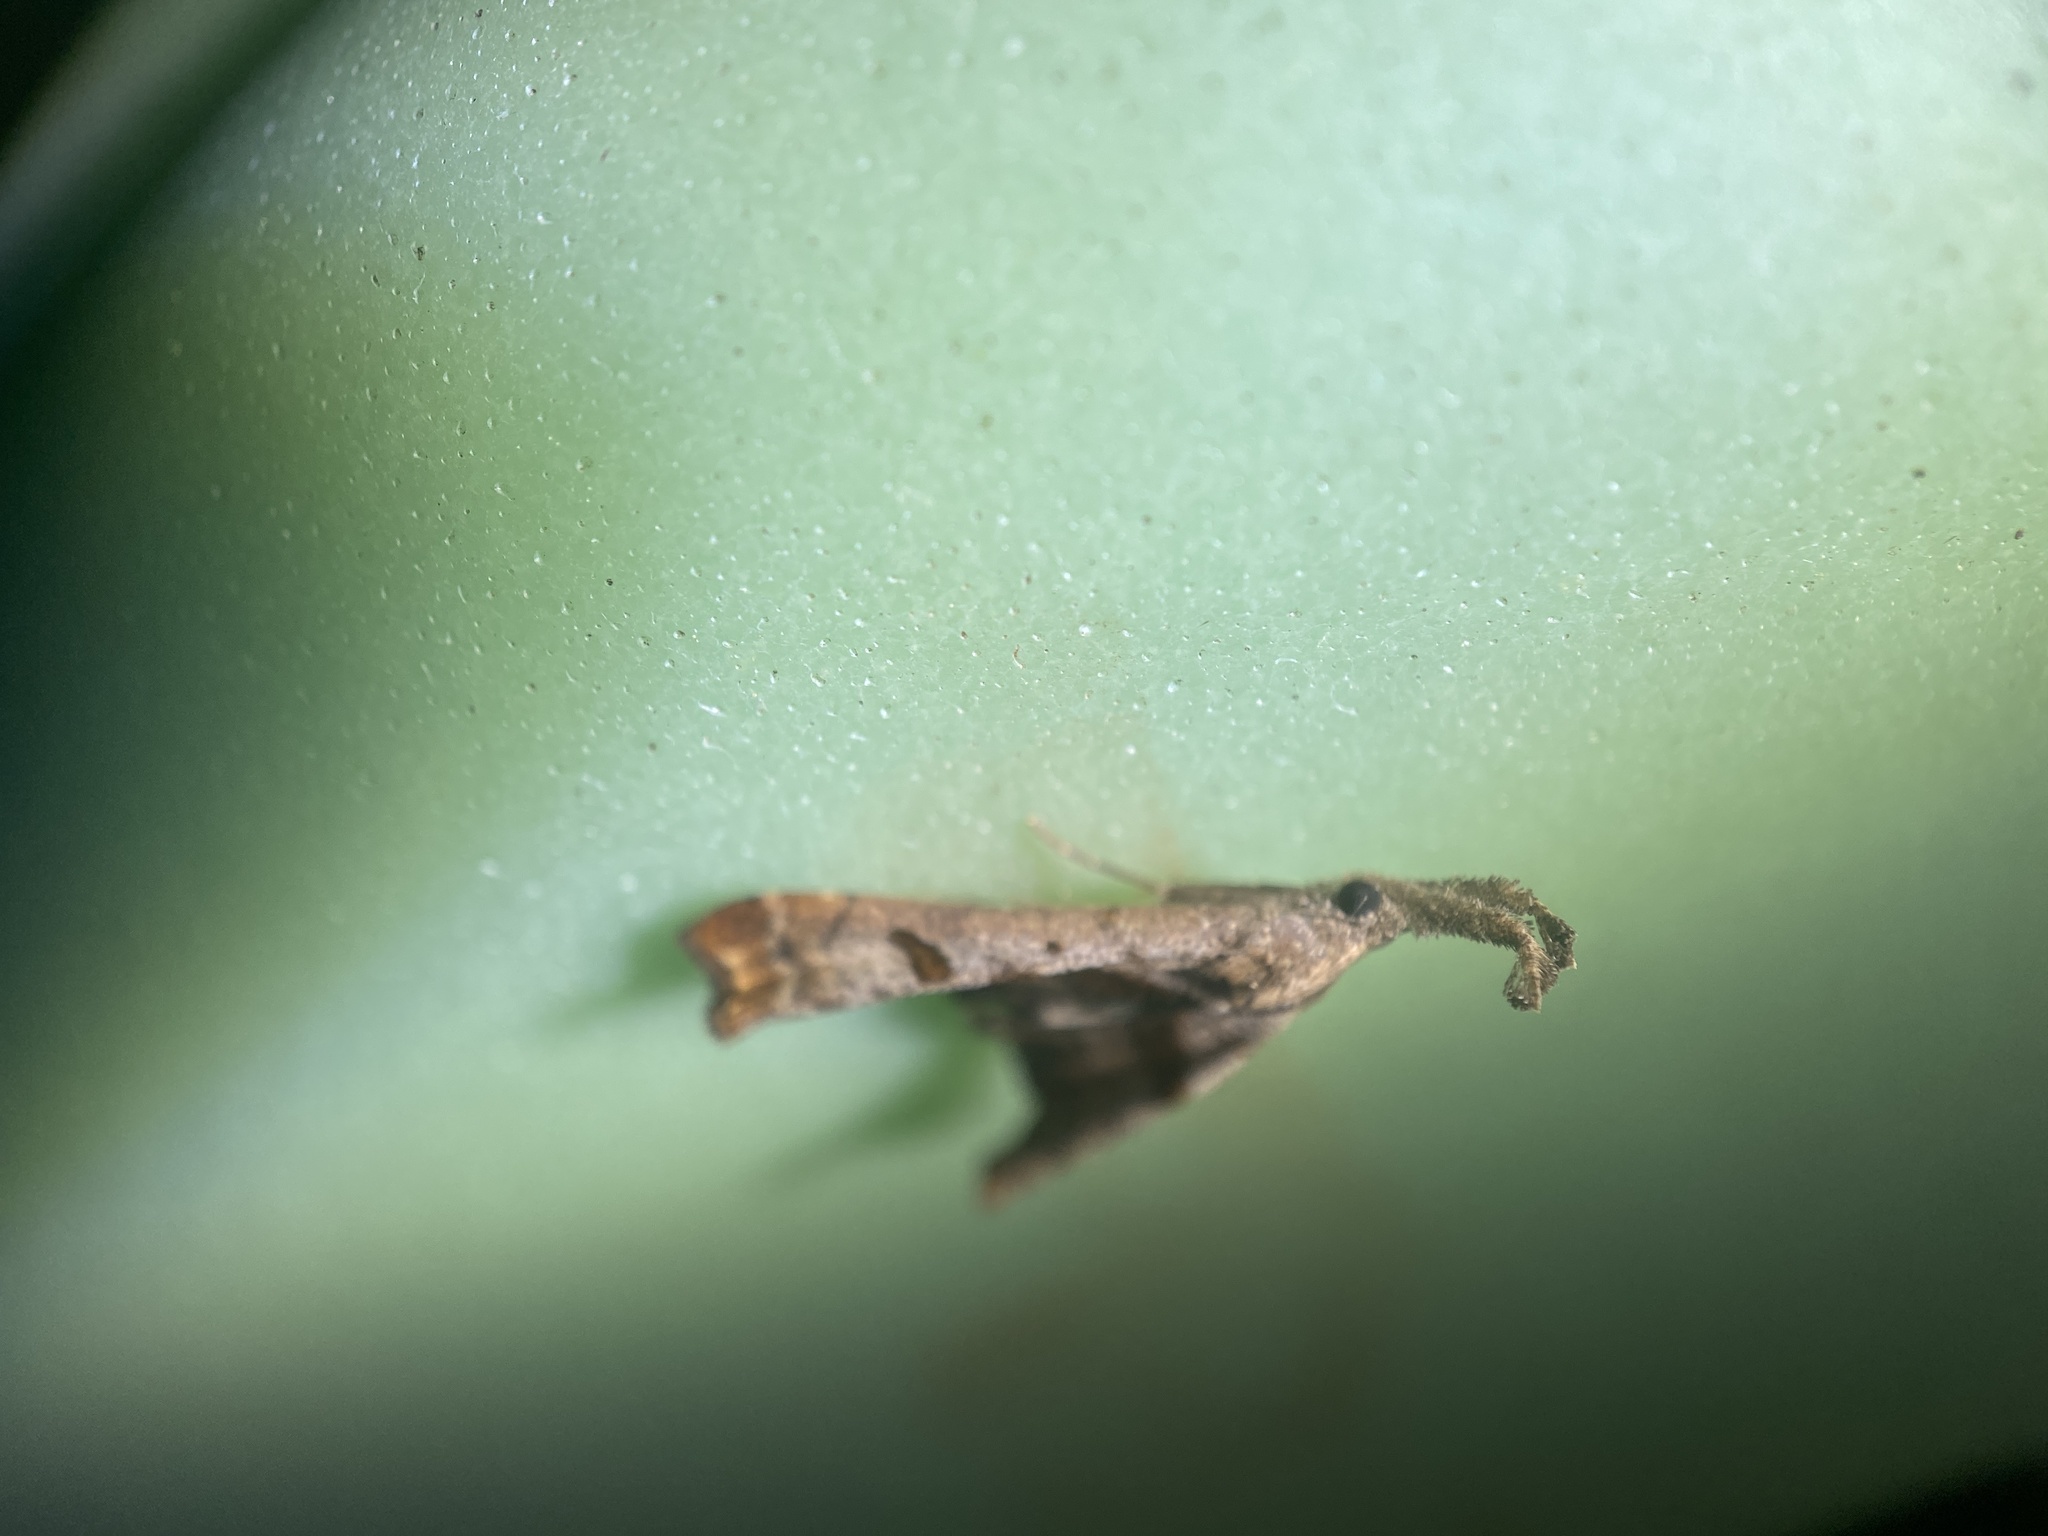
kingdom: Animalia
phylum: Arthropoda
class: Insecta
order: Lepidoptera
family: Erebidae
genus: Palthis
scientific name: Palthis angulalis
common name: Dark-spotted palthis moth
